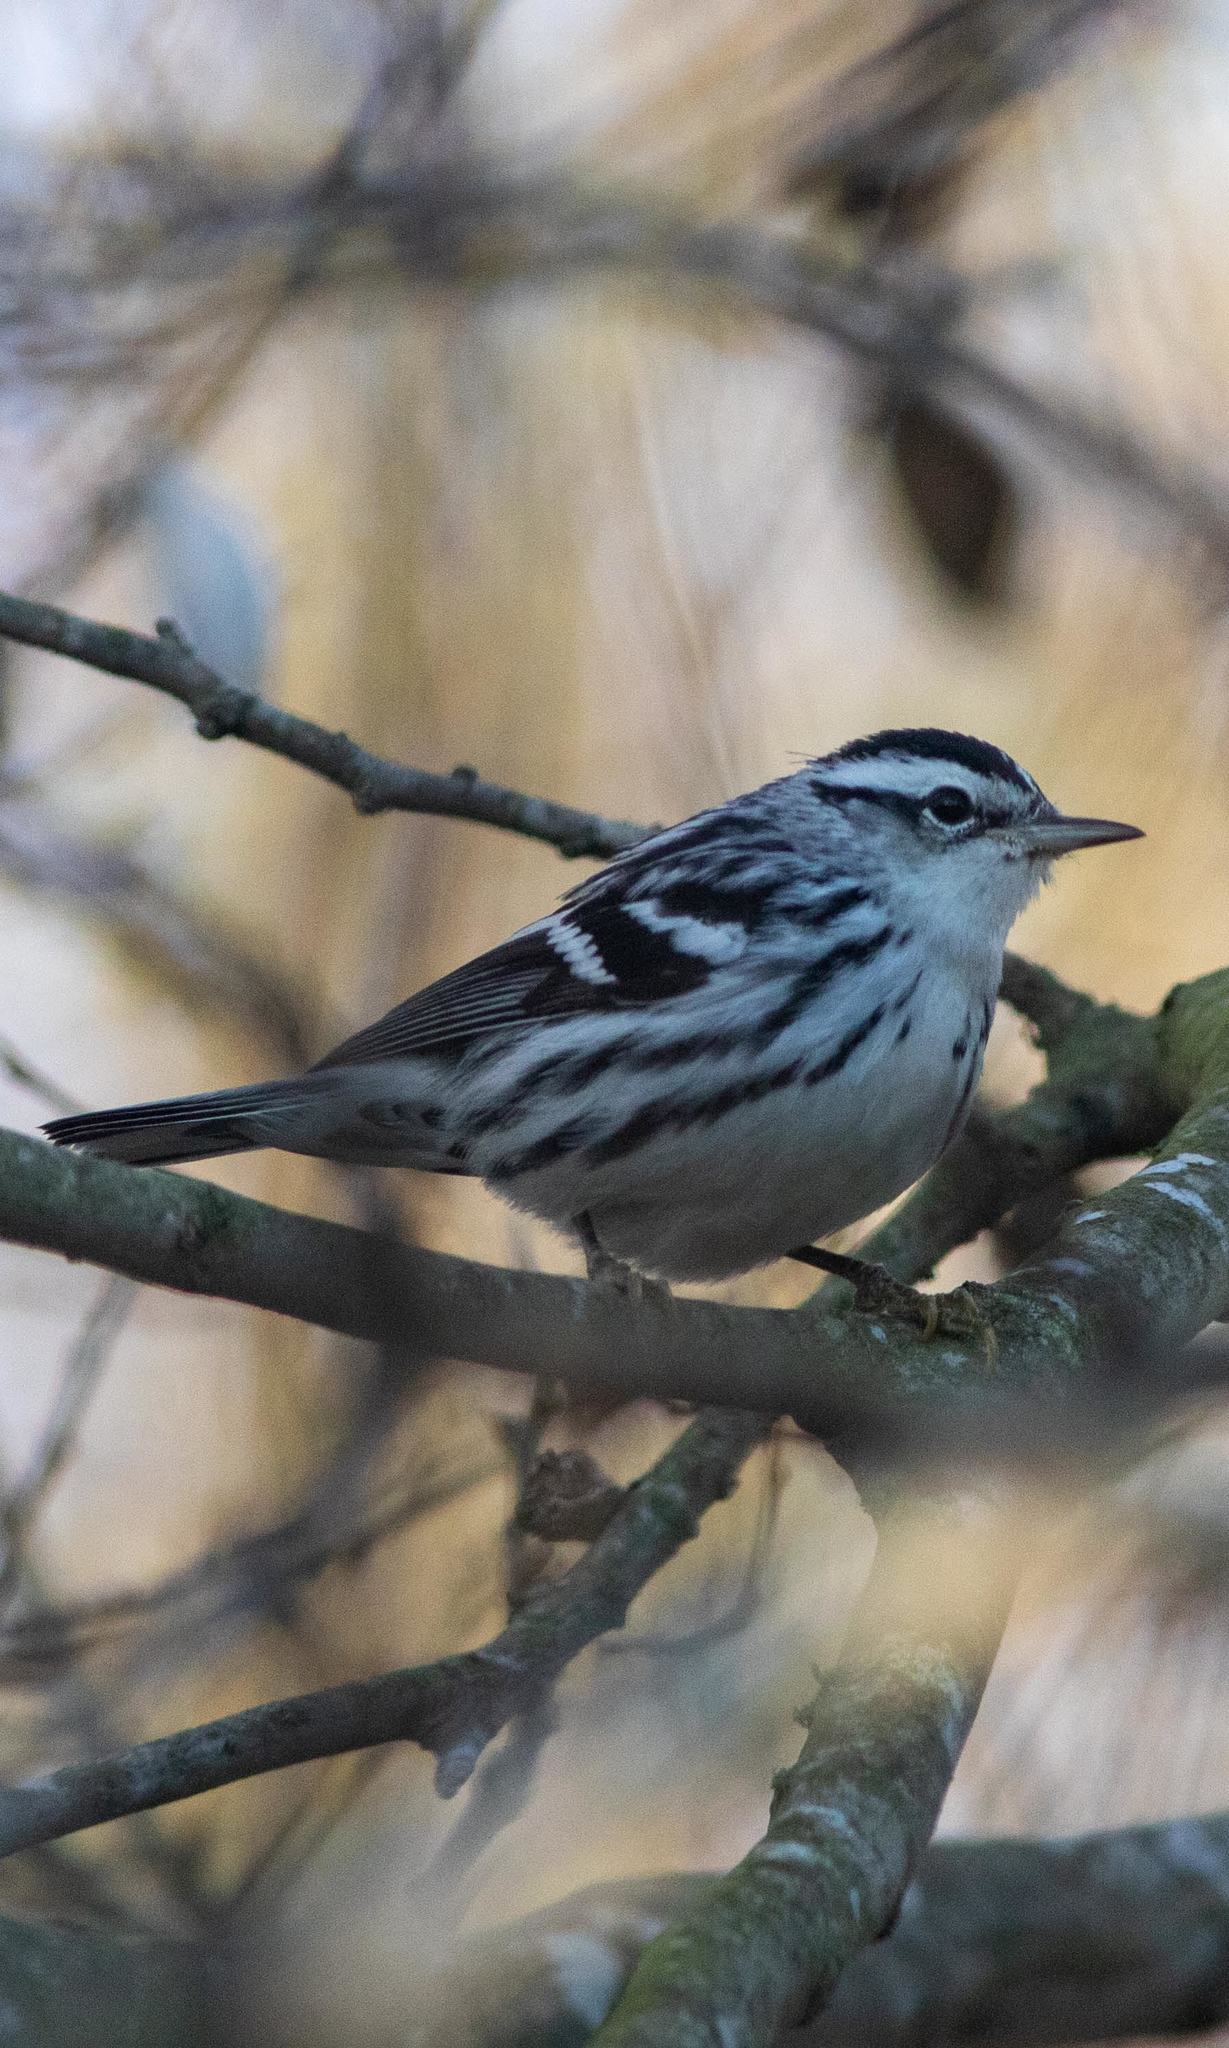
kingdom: Animalia
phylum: Chordata
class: Aves
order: Passeriformes
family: Parulidae
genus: Mniotilta
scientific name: Mniotilta varia
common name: Black-and-white warbler
